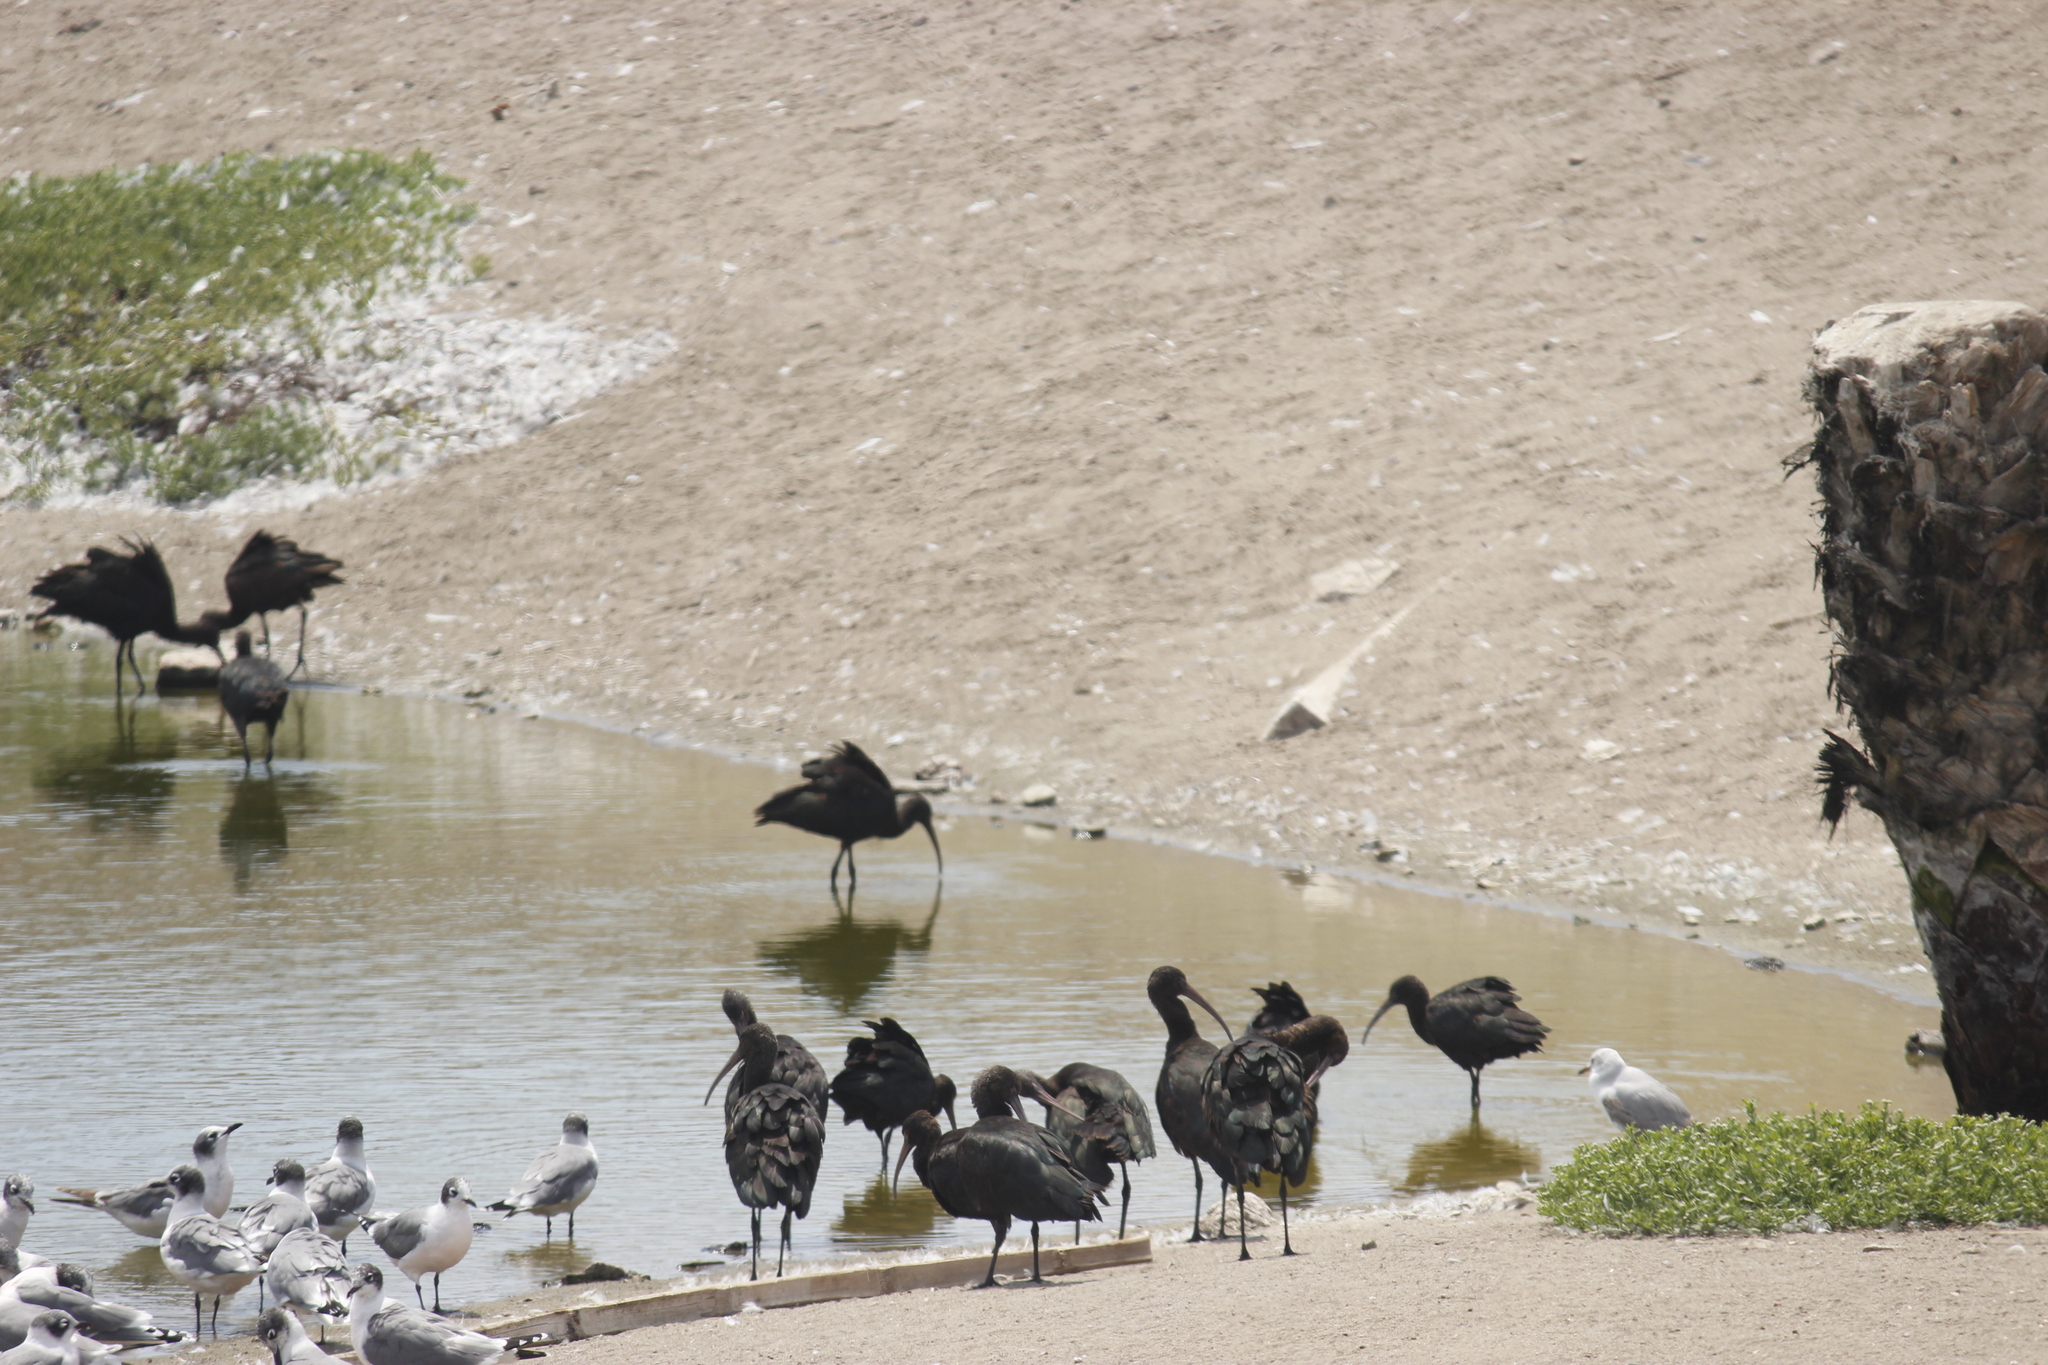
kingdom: Animalia
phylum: Chordata
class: Aves
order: Pelecaniformes
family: Threskiornithidae
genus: Plegadis
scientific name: Plegadis ridgwayi
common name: Puna ibis
